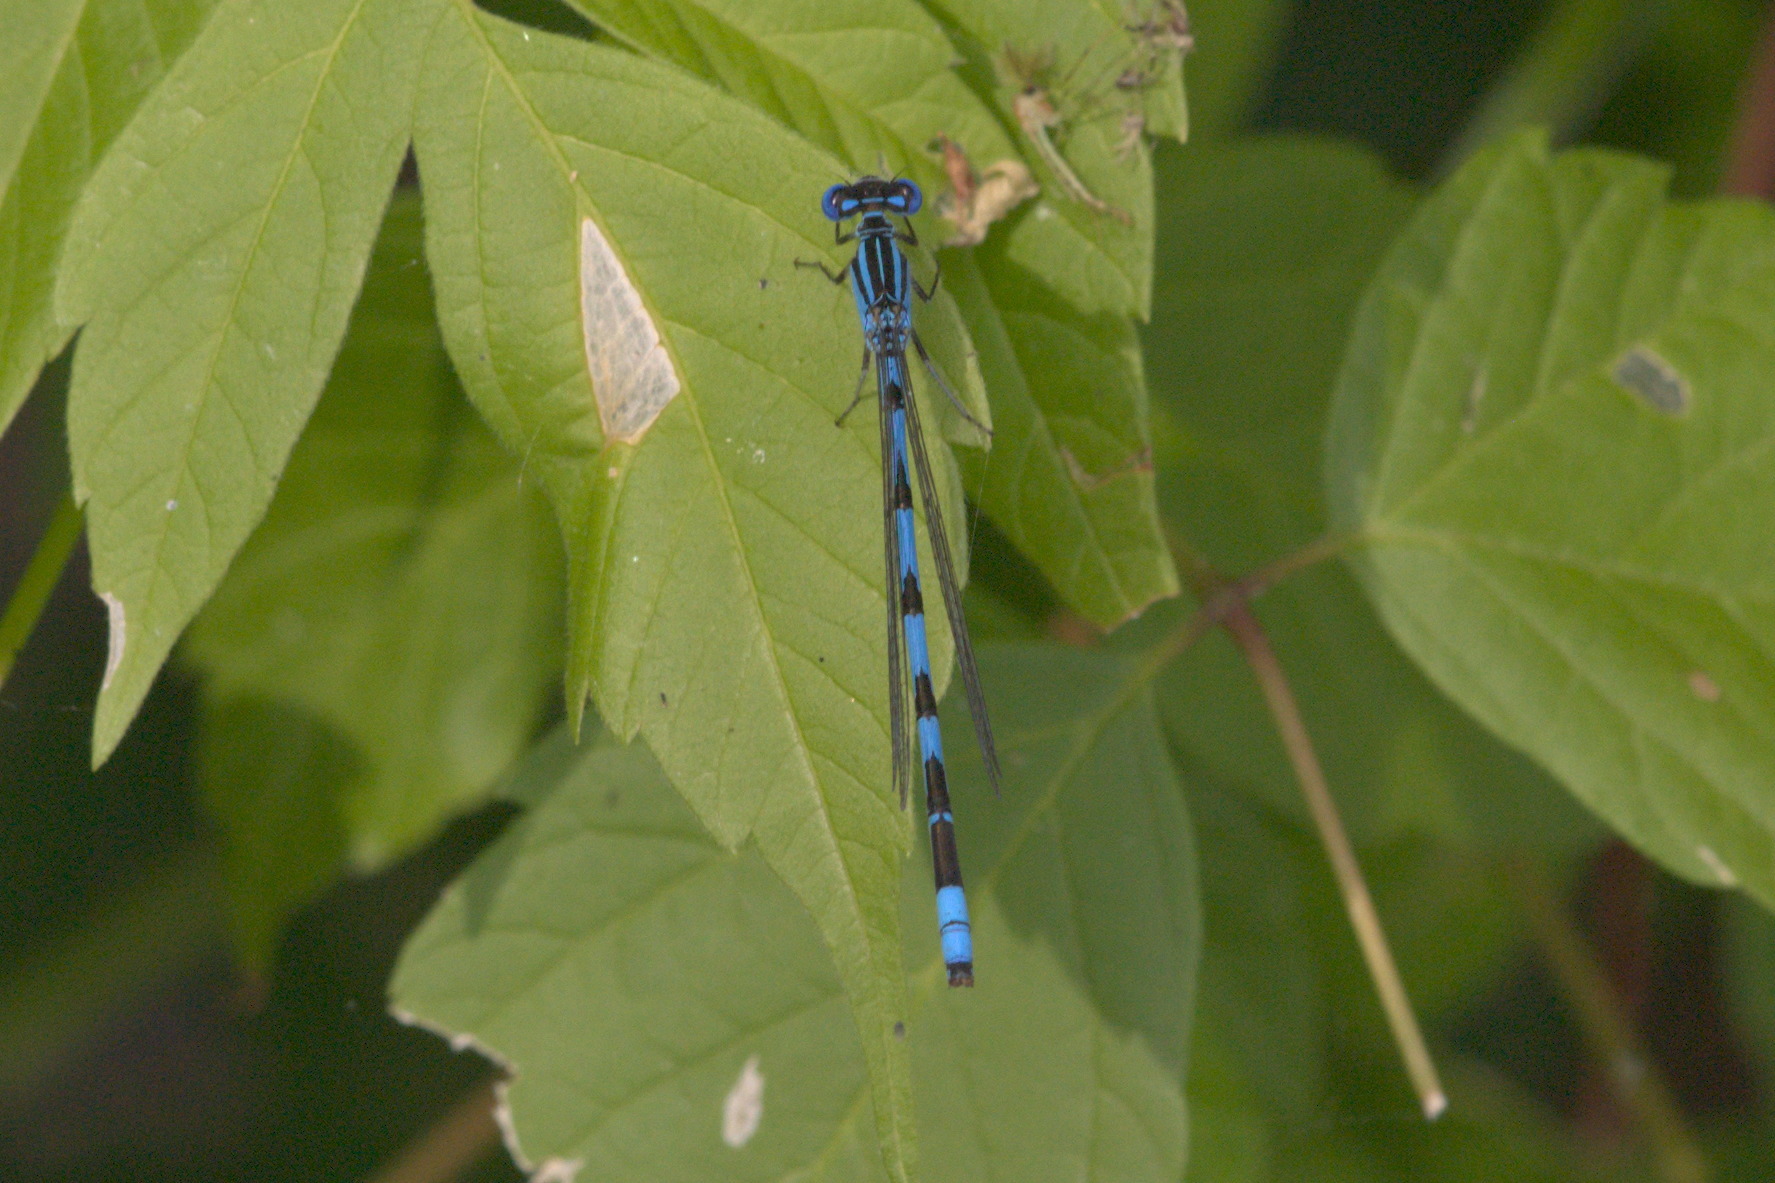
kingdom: Animalia
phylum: Arthropoda
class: Insecta
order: Odonata
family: Coenagrionidae
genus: Enallagma
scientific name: Enallagma durum
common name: Big bluet
